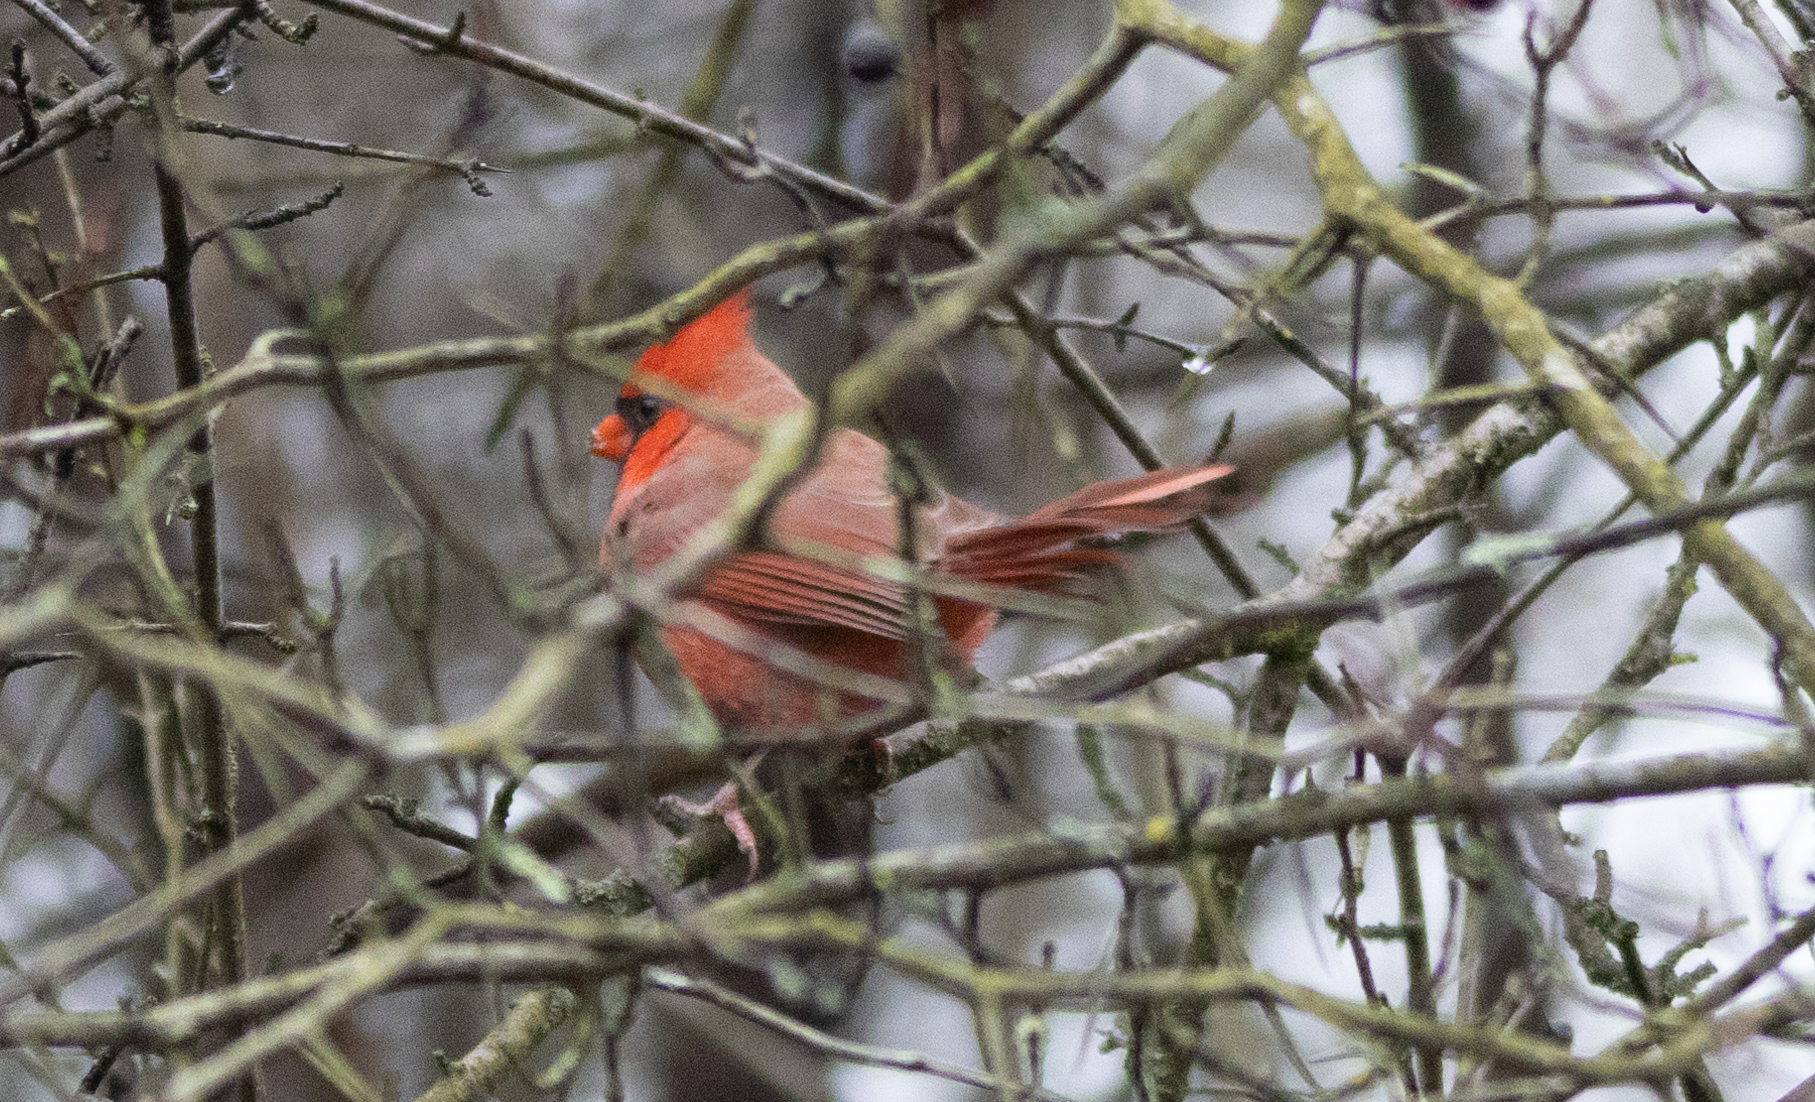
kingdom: Animalia
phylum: Chordata
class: Aves
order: Passeriformes
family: Cardinalidae
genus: Cardinalis
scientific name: Cardinalis cardinalis
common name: Northern cardinal
